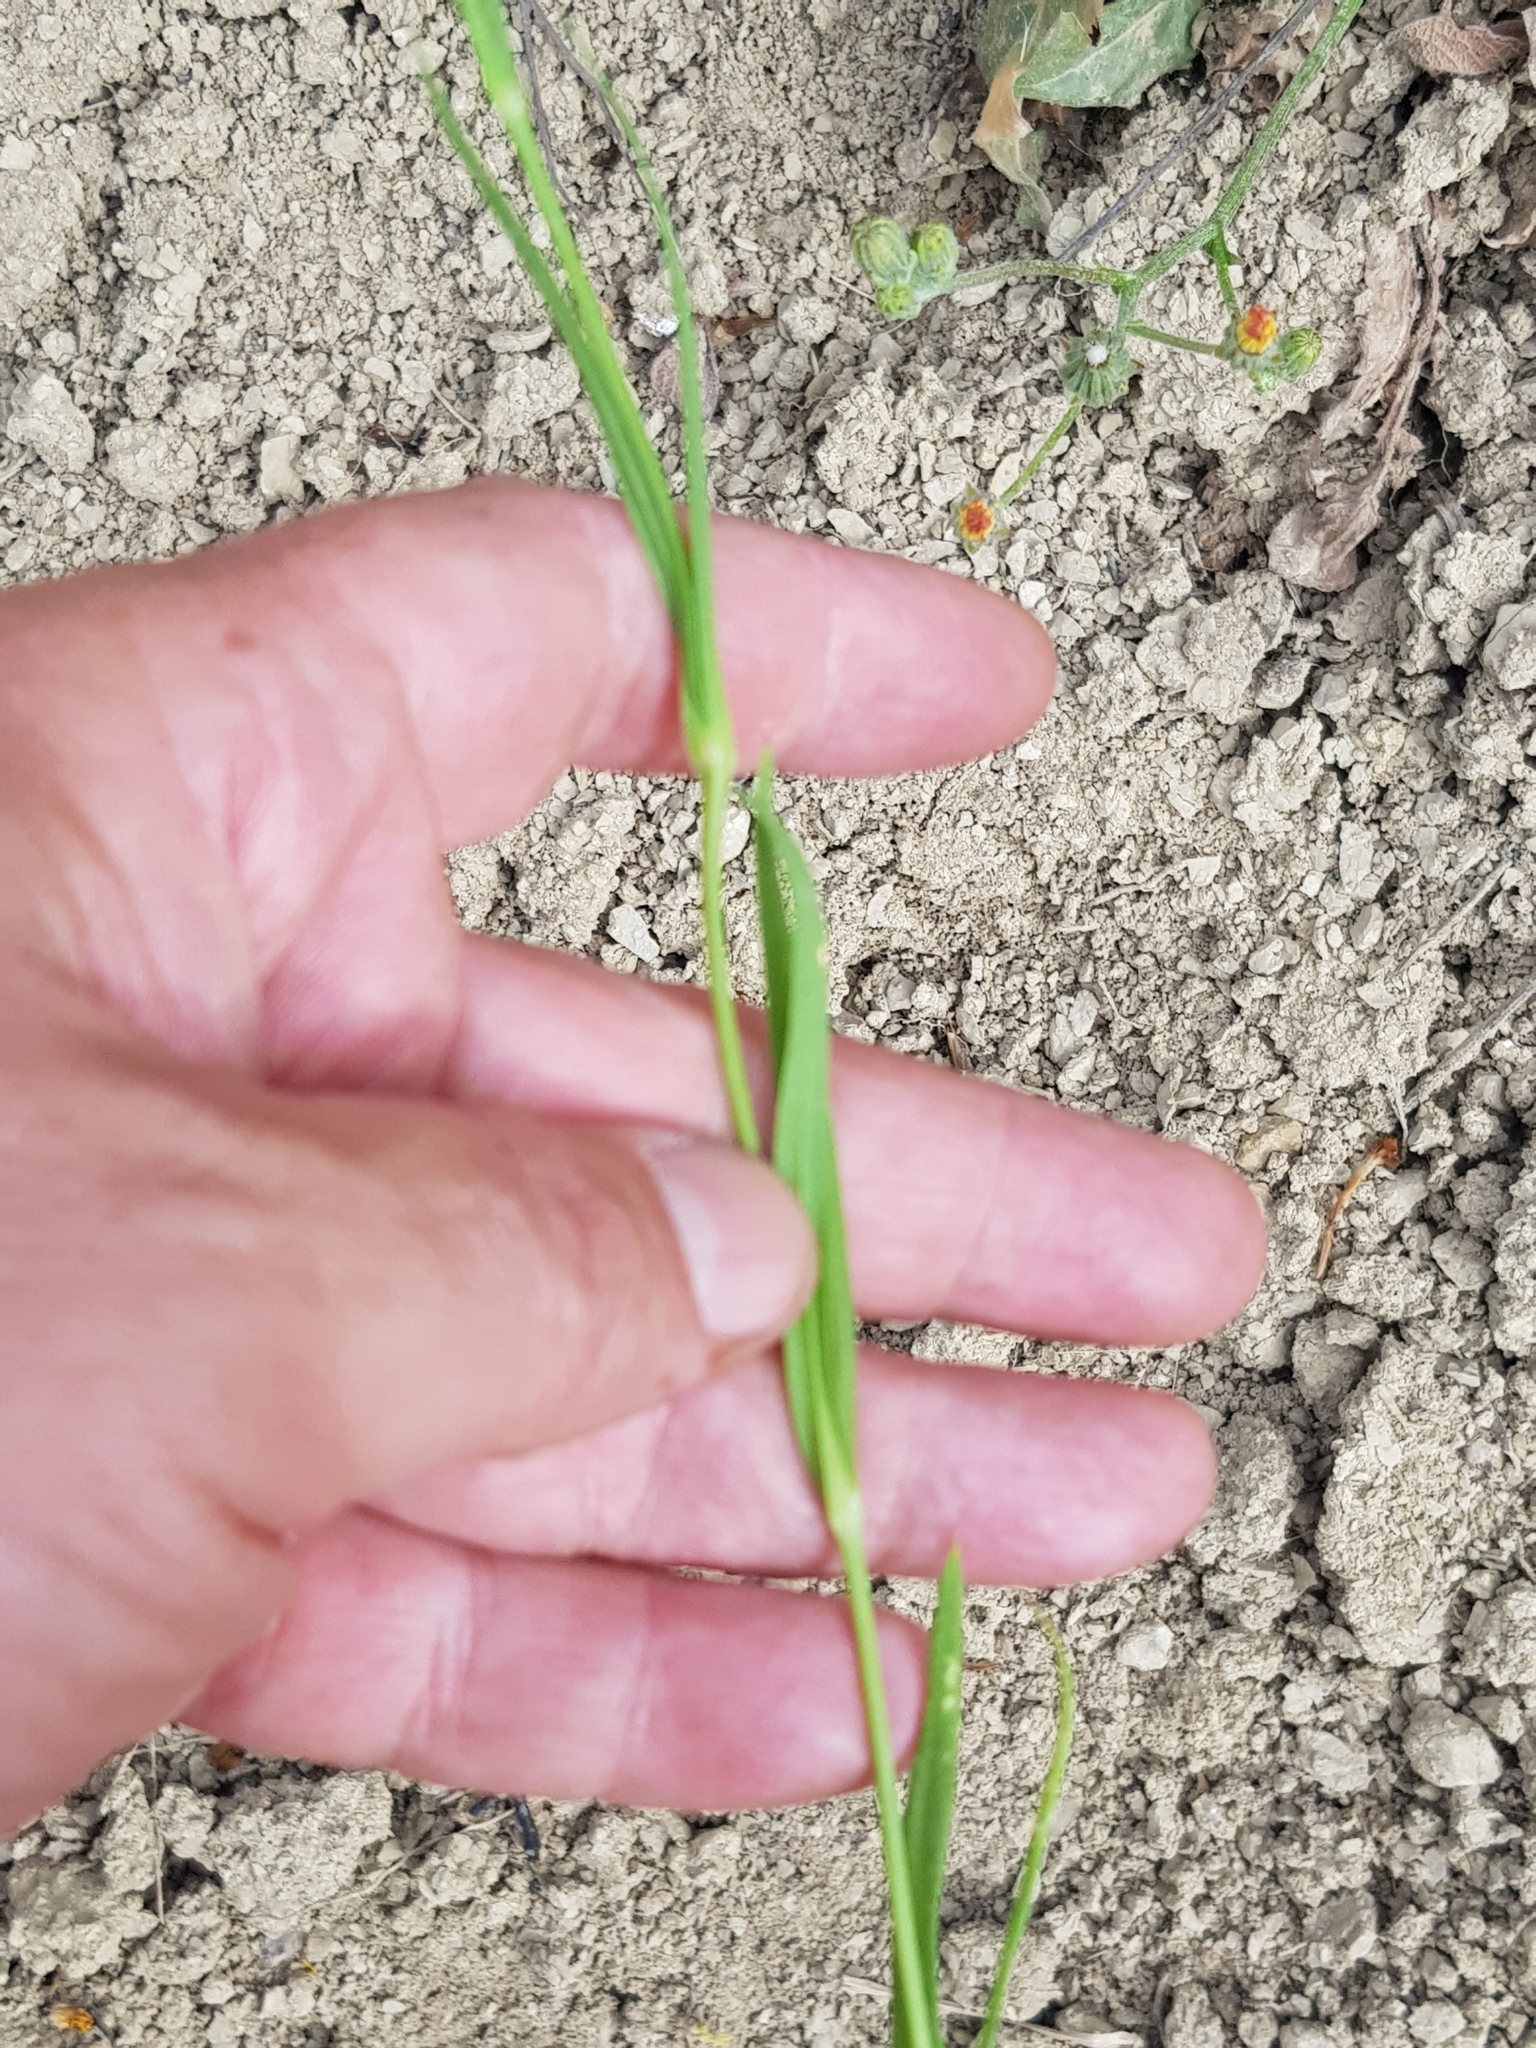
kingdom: Plantae
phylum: Tracheophyta
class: Magnoliopsida
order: Caryophyllales
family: Caryophyllaceae
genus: Eudianthe
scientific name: Eudianthe coeli-rosa
